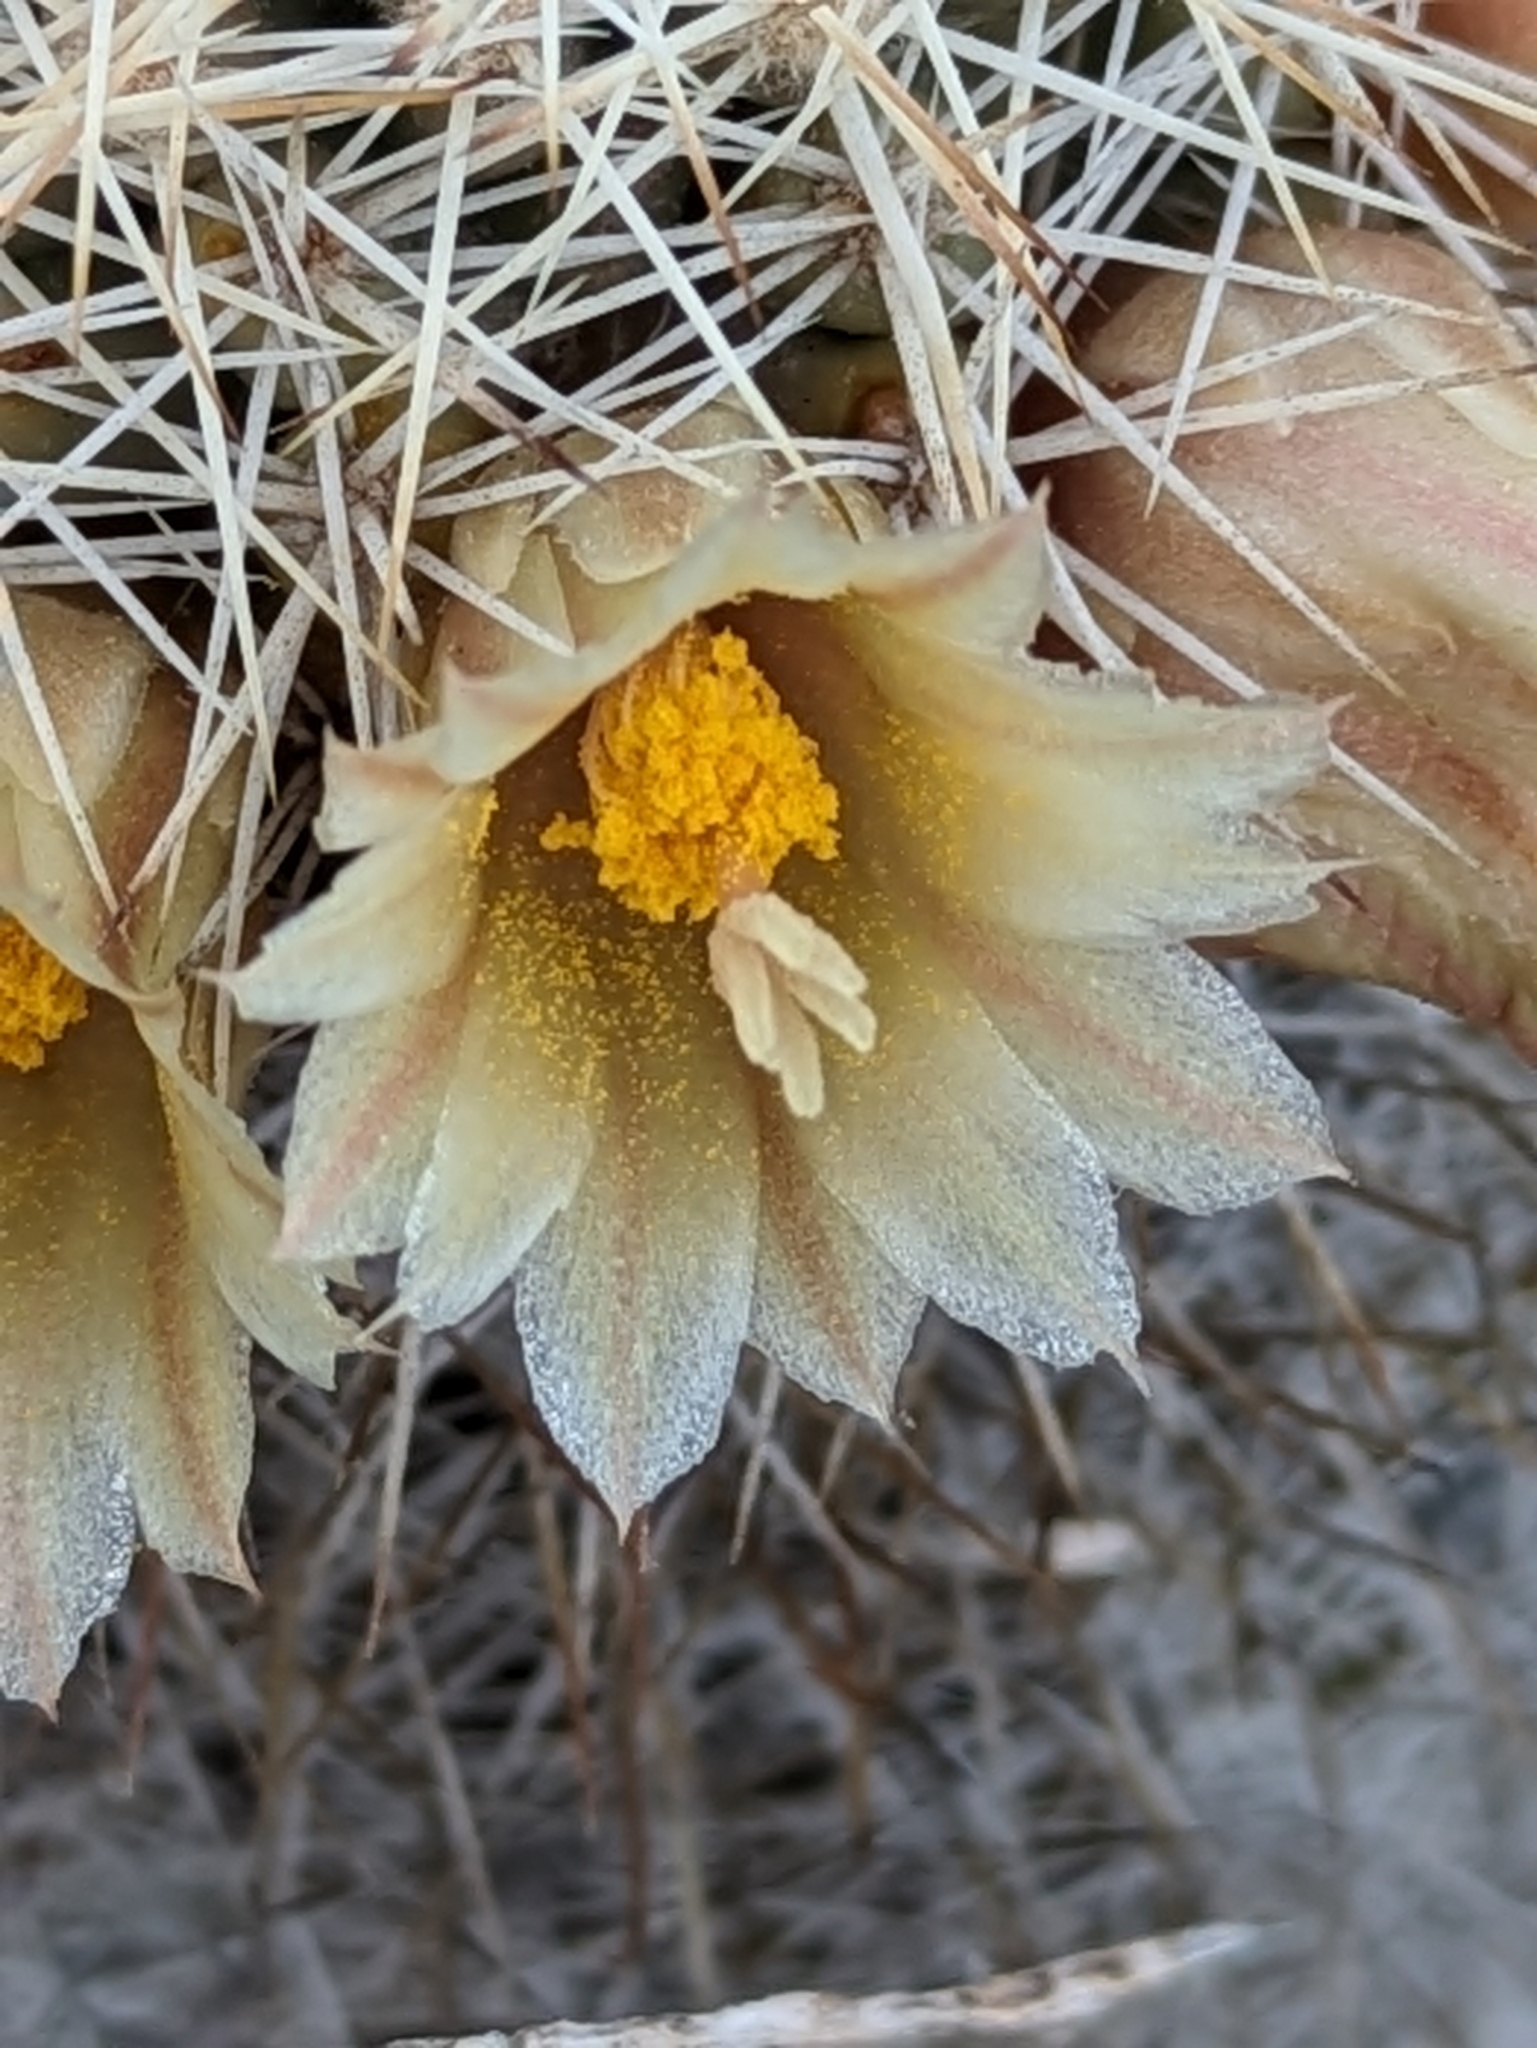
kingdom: Plantae
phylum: Tracheophyta
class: Magnoliopsida
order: Caryophyllales
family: Cactaceae
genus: Cochemiea
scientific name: Cochemiea armillata
